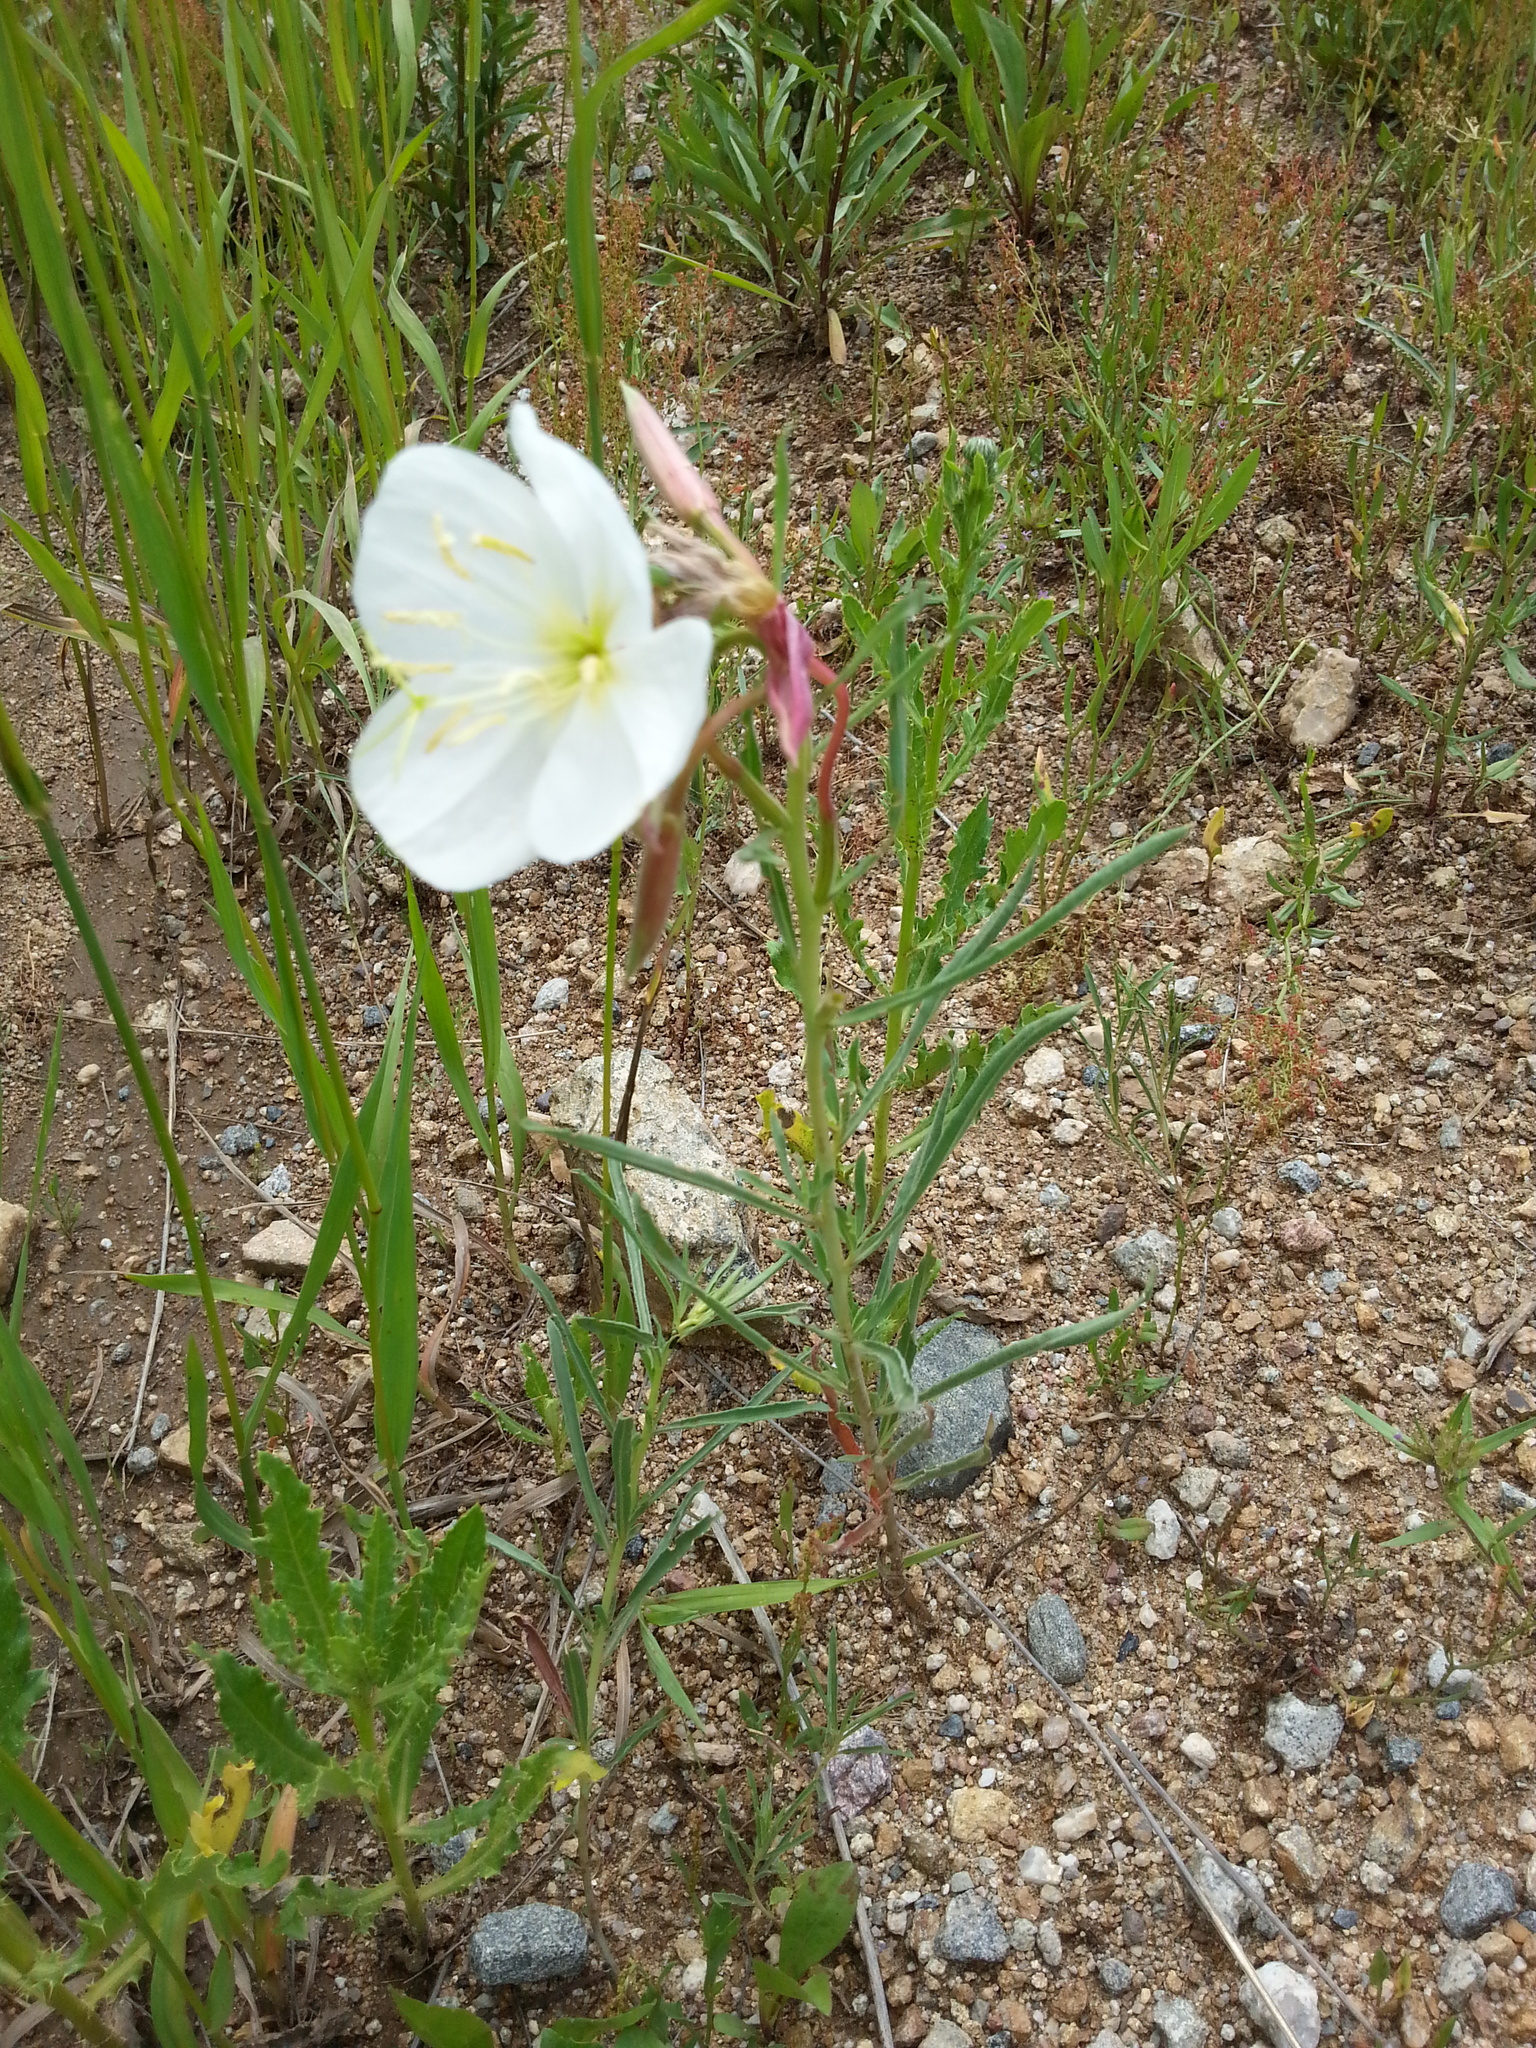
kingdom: Plantae
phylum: Tracheophyta
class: Magnoliopsida
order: Myrtales
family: Onagraceae
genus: Oenothera
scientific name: Oenothera nuttallii
